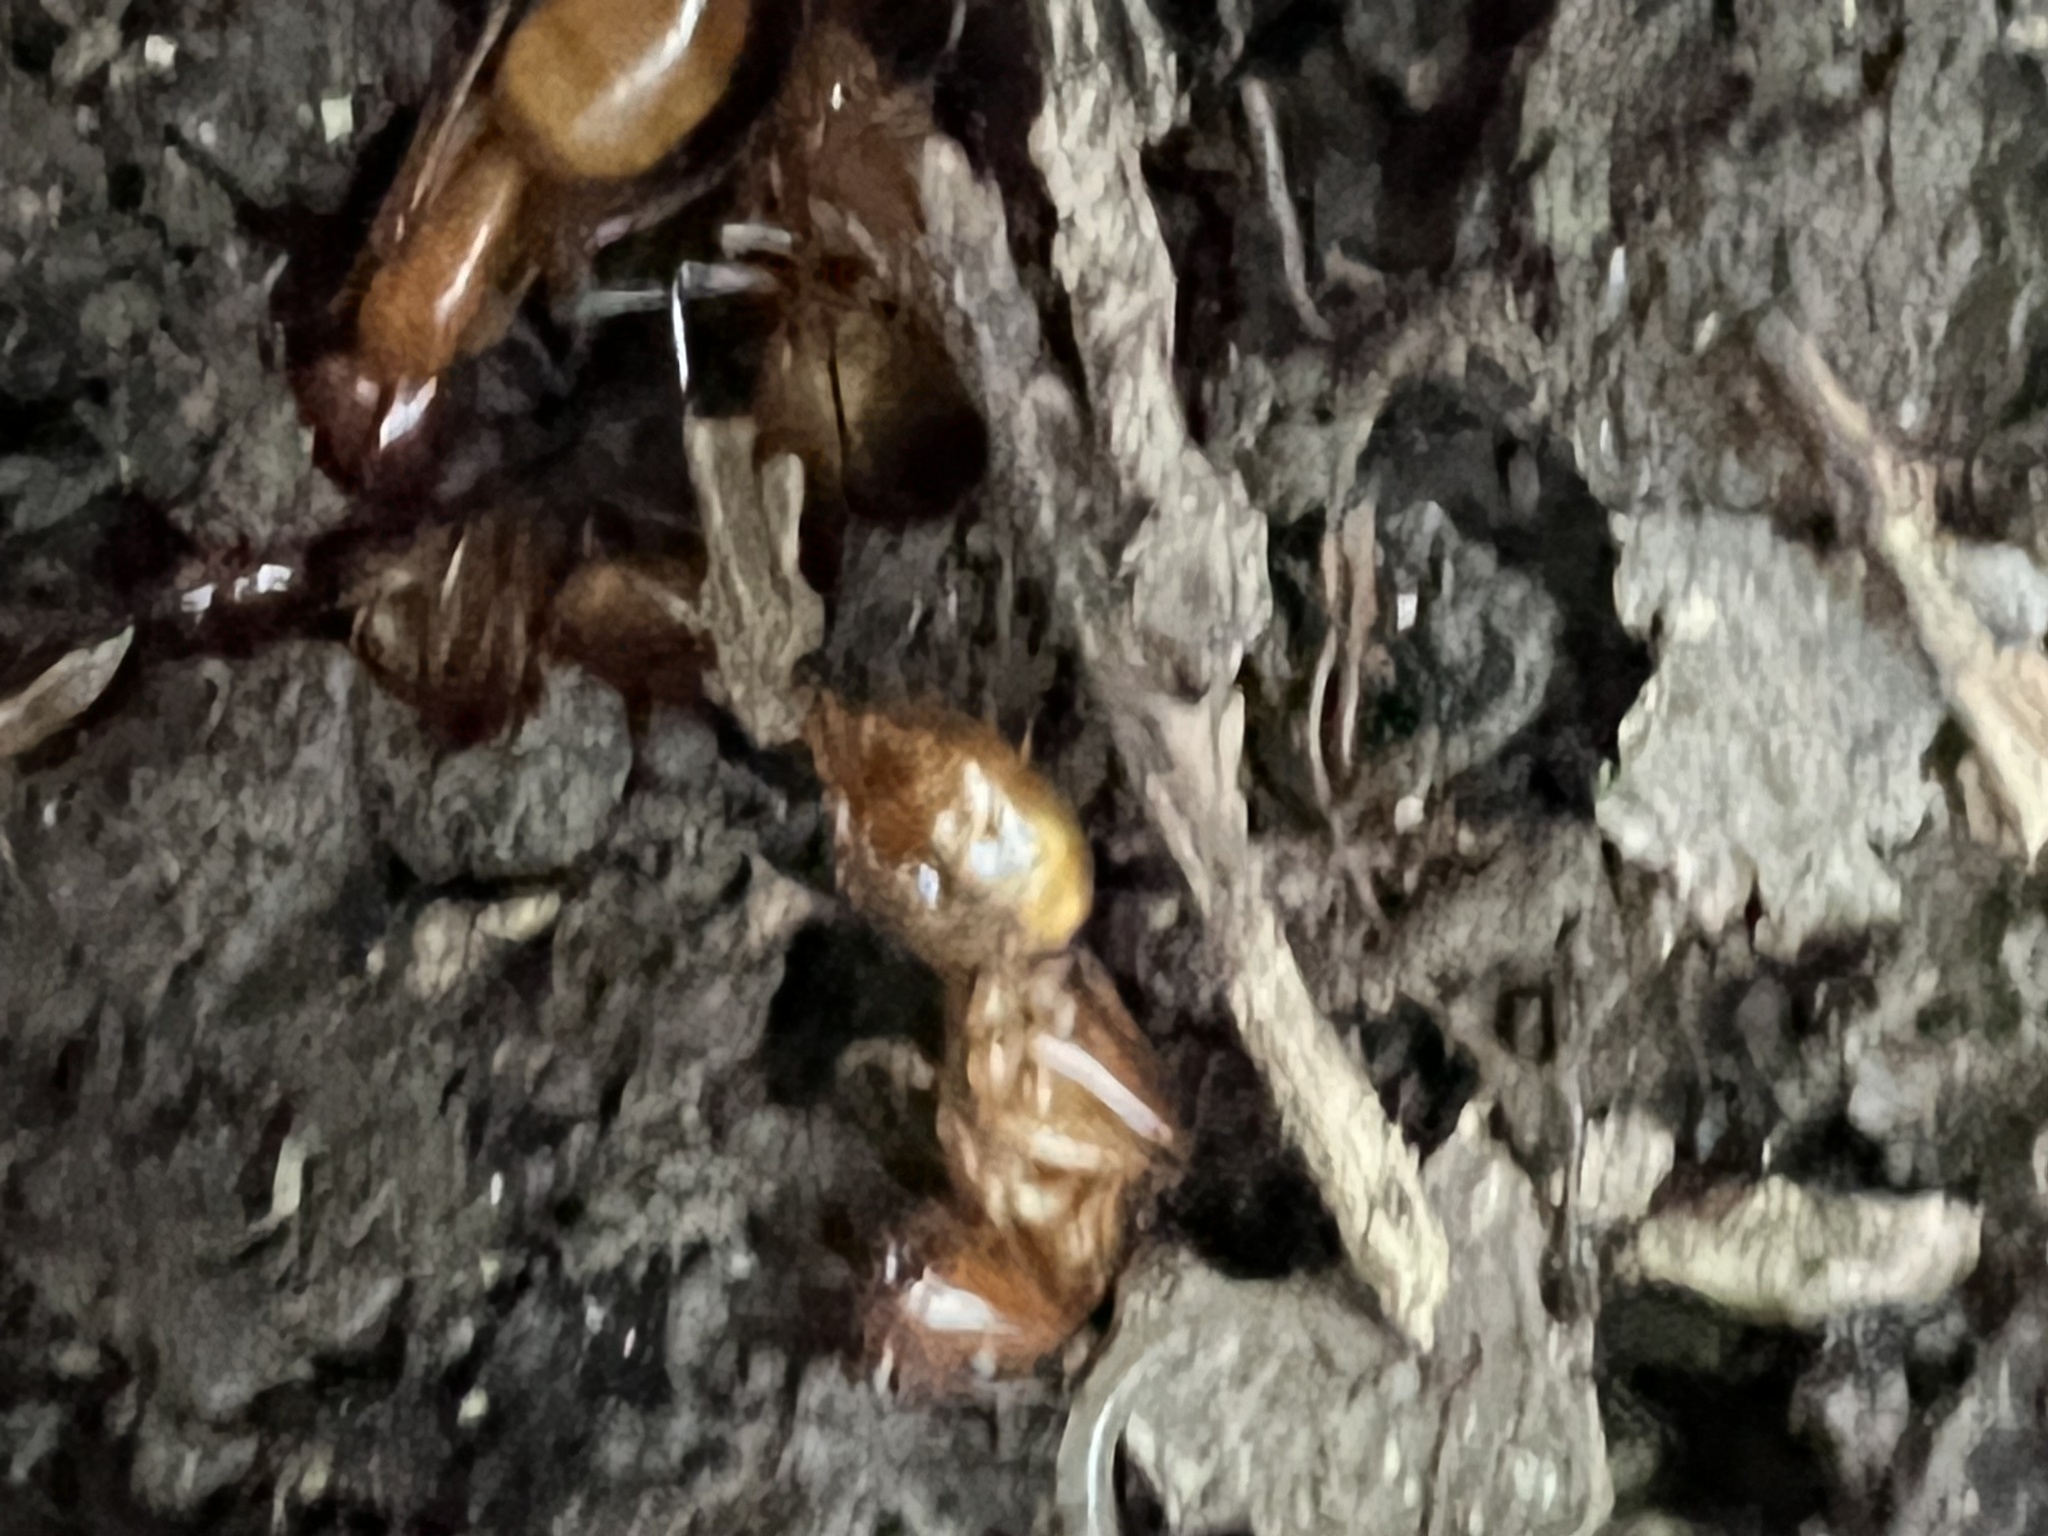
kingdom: Animalia
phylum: Arthropoda
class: Insecta
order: Hymenoptera
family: Formicidae
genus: Camponotus
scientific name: Camponotus castaneus
